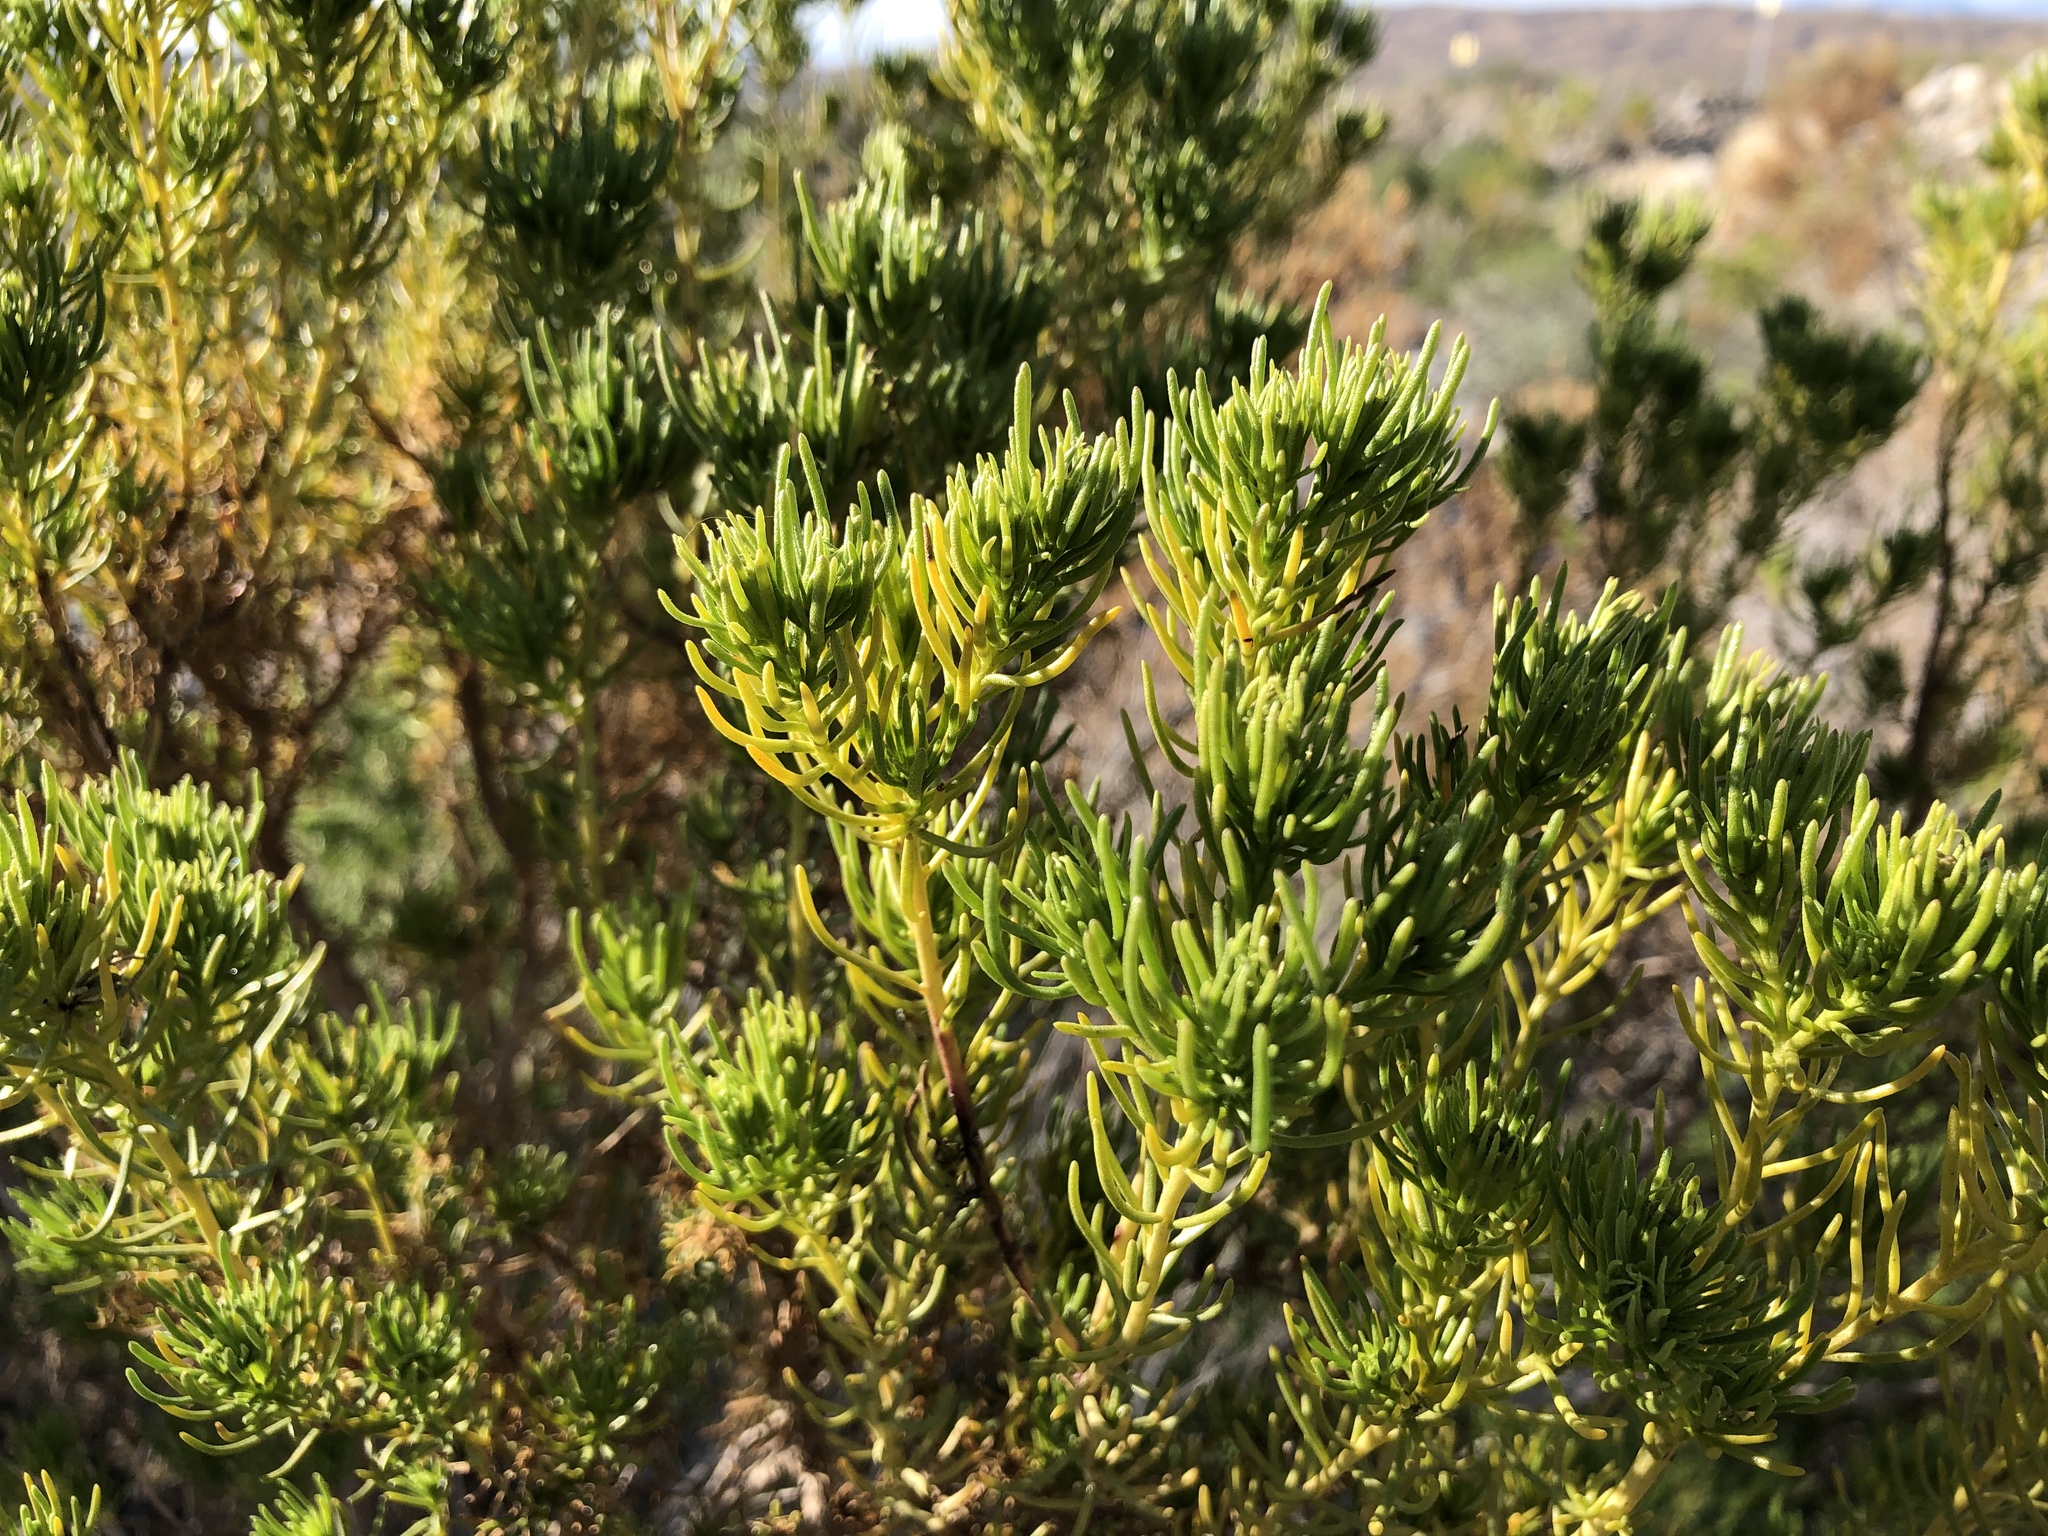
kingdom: Plantae
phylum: Tracheophyta
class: Magnoliopsida
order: Asterales
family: Asteraceae
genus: Peucephyllum
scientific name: Peucephyllum schottii
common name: Pygmy-cedar
